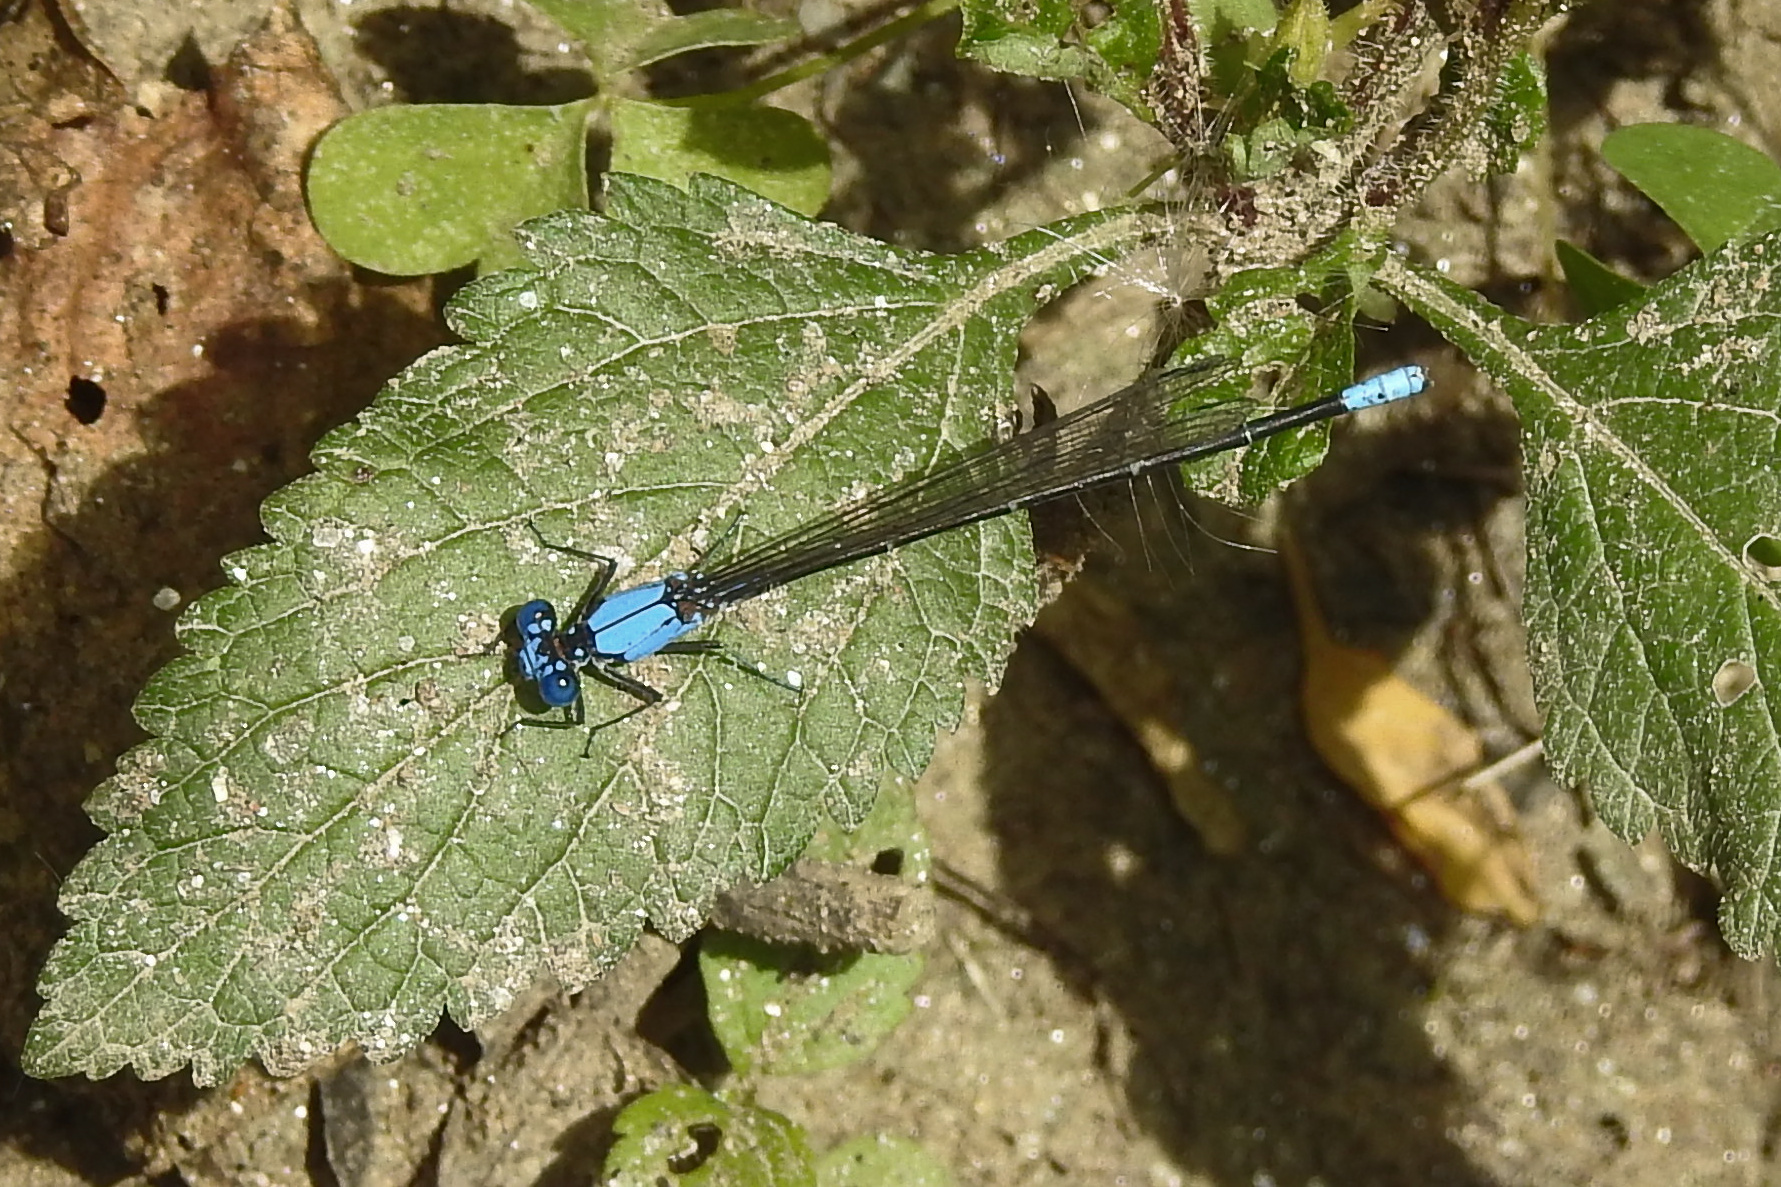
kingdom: Animalia
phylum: Arthropoda
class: Insecta
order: Odonata
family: Coenagrionidae
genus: Argia
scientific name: Argia apicalis
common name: Blue-fronted dancer
